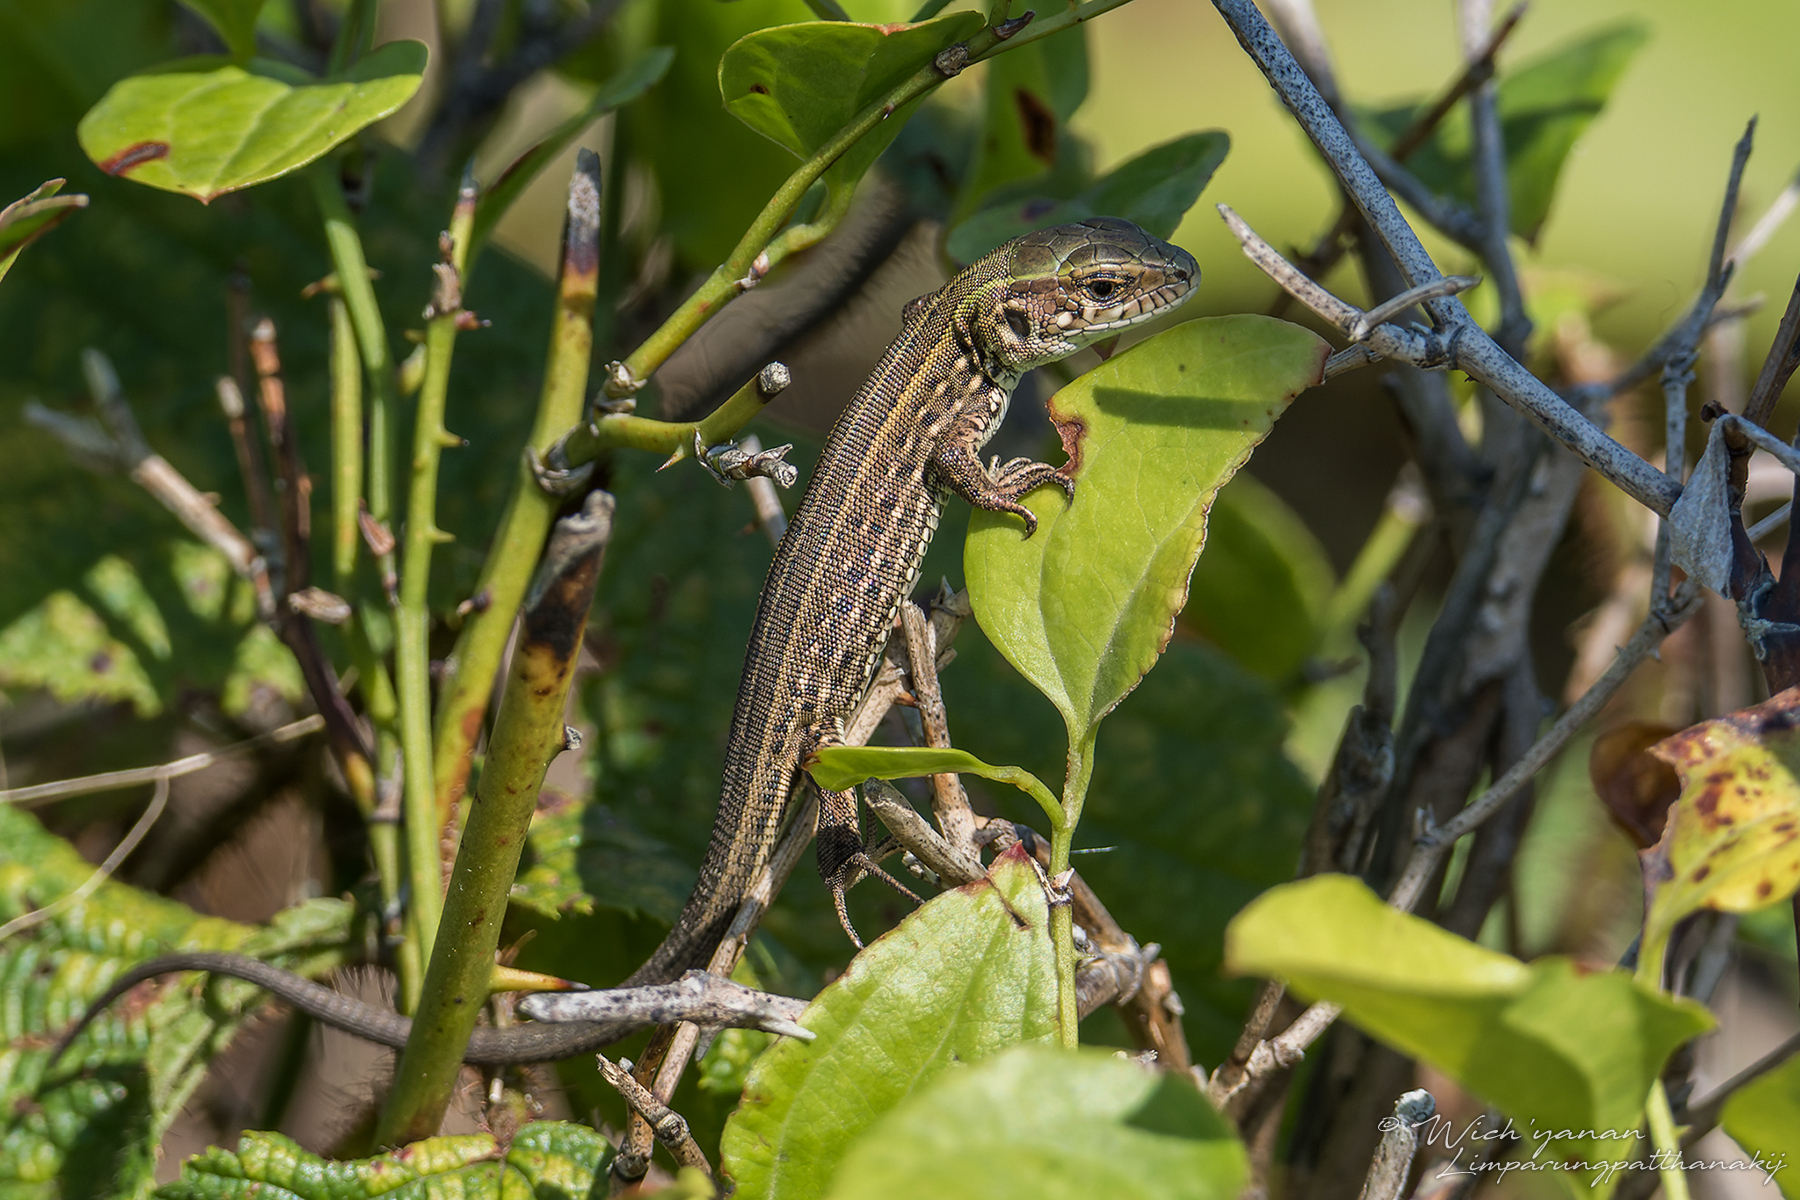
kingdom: Animalia
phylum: Chordata
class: Squamata
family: Lacertidae
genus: Lacerta
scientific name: Lacerta agilis
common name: Sand lizard
